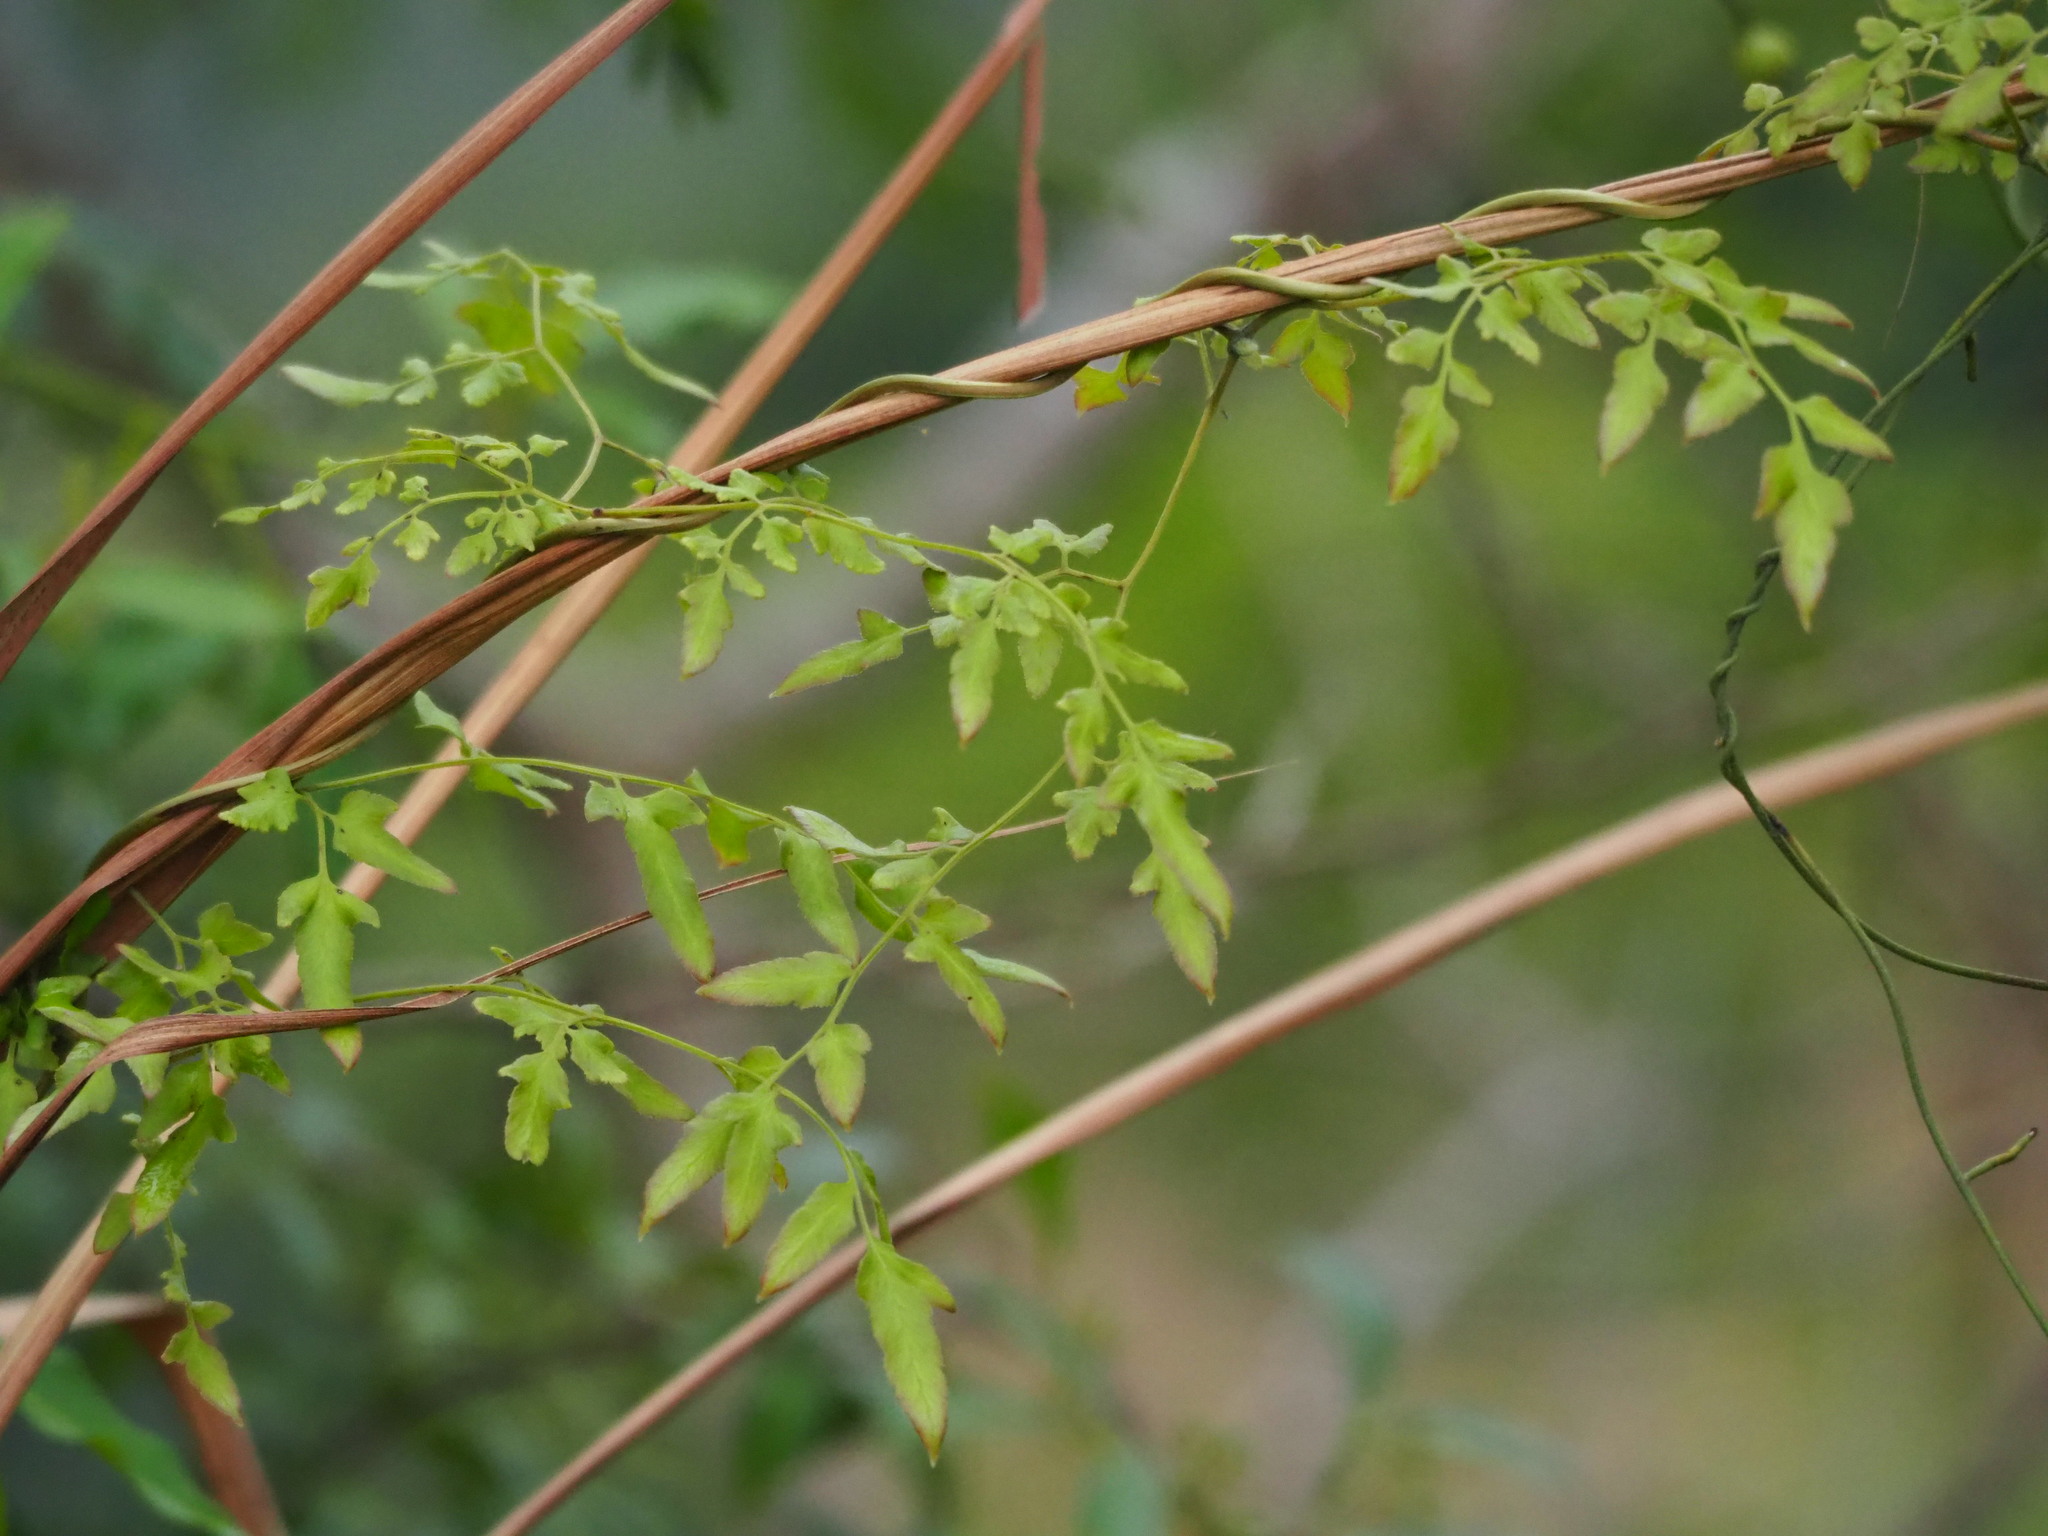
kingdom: Plantae
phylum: Tracheophyta
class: Polypodiopsida
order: Schizaeales
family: Lygodiaceae
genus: Lygodium
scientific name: Lygodium japonicum
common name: Japanese climbing fern
